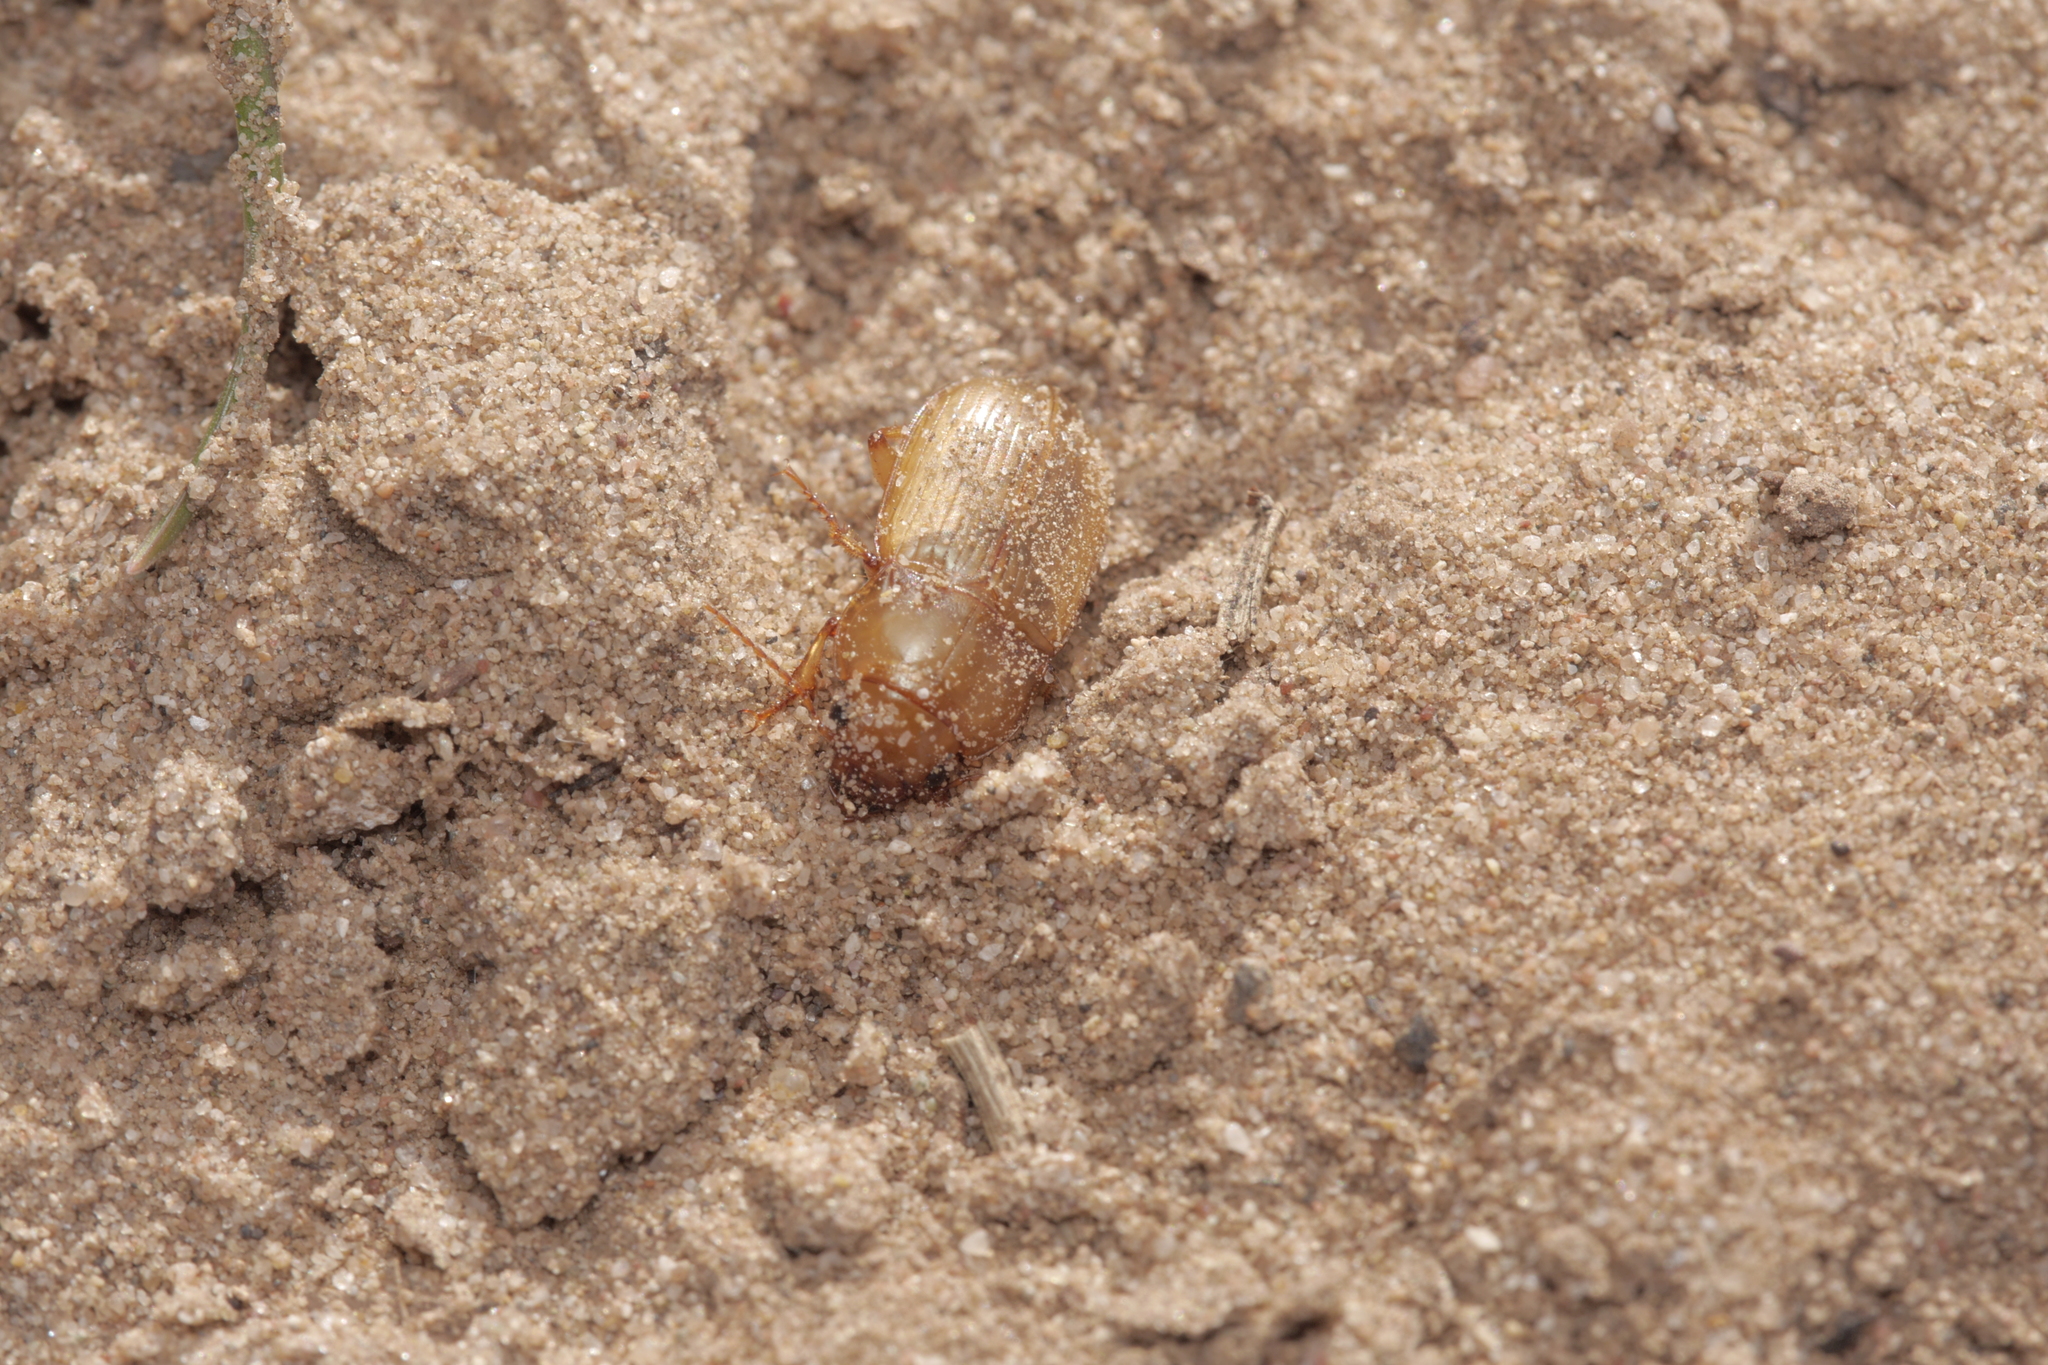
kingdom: Animalia
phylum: Arthropoda
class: Insecta
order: Coleoptera
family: Carabidae
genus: Amara
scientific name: Amara fulva
